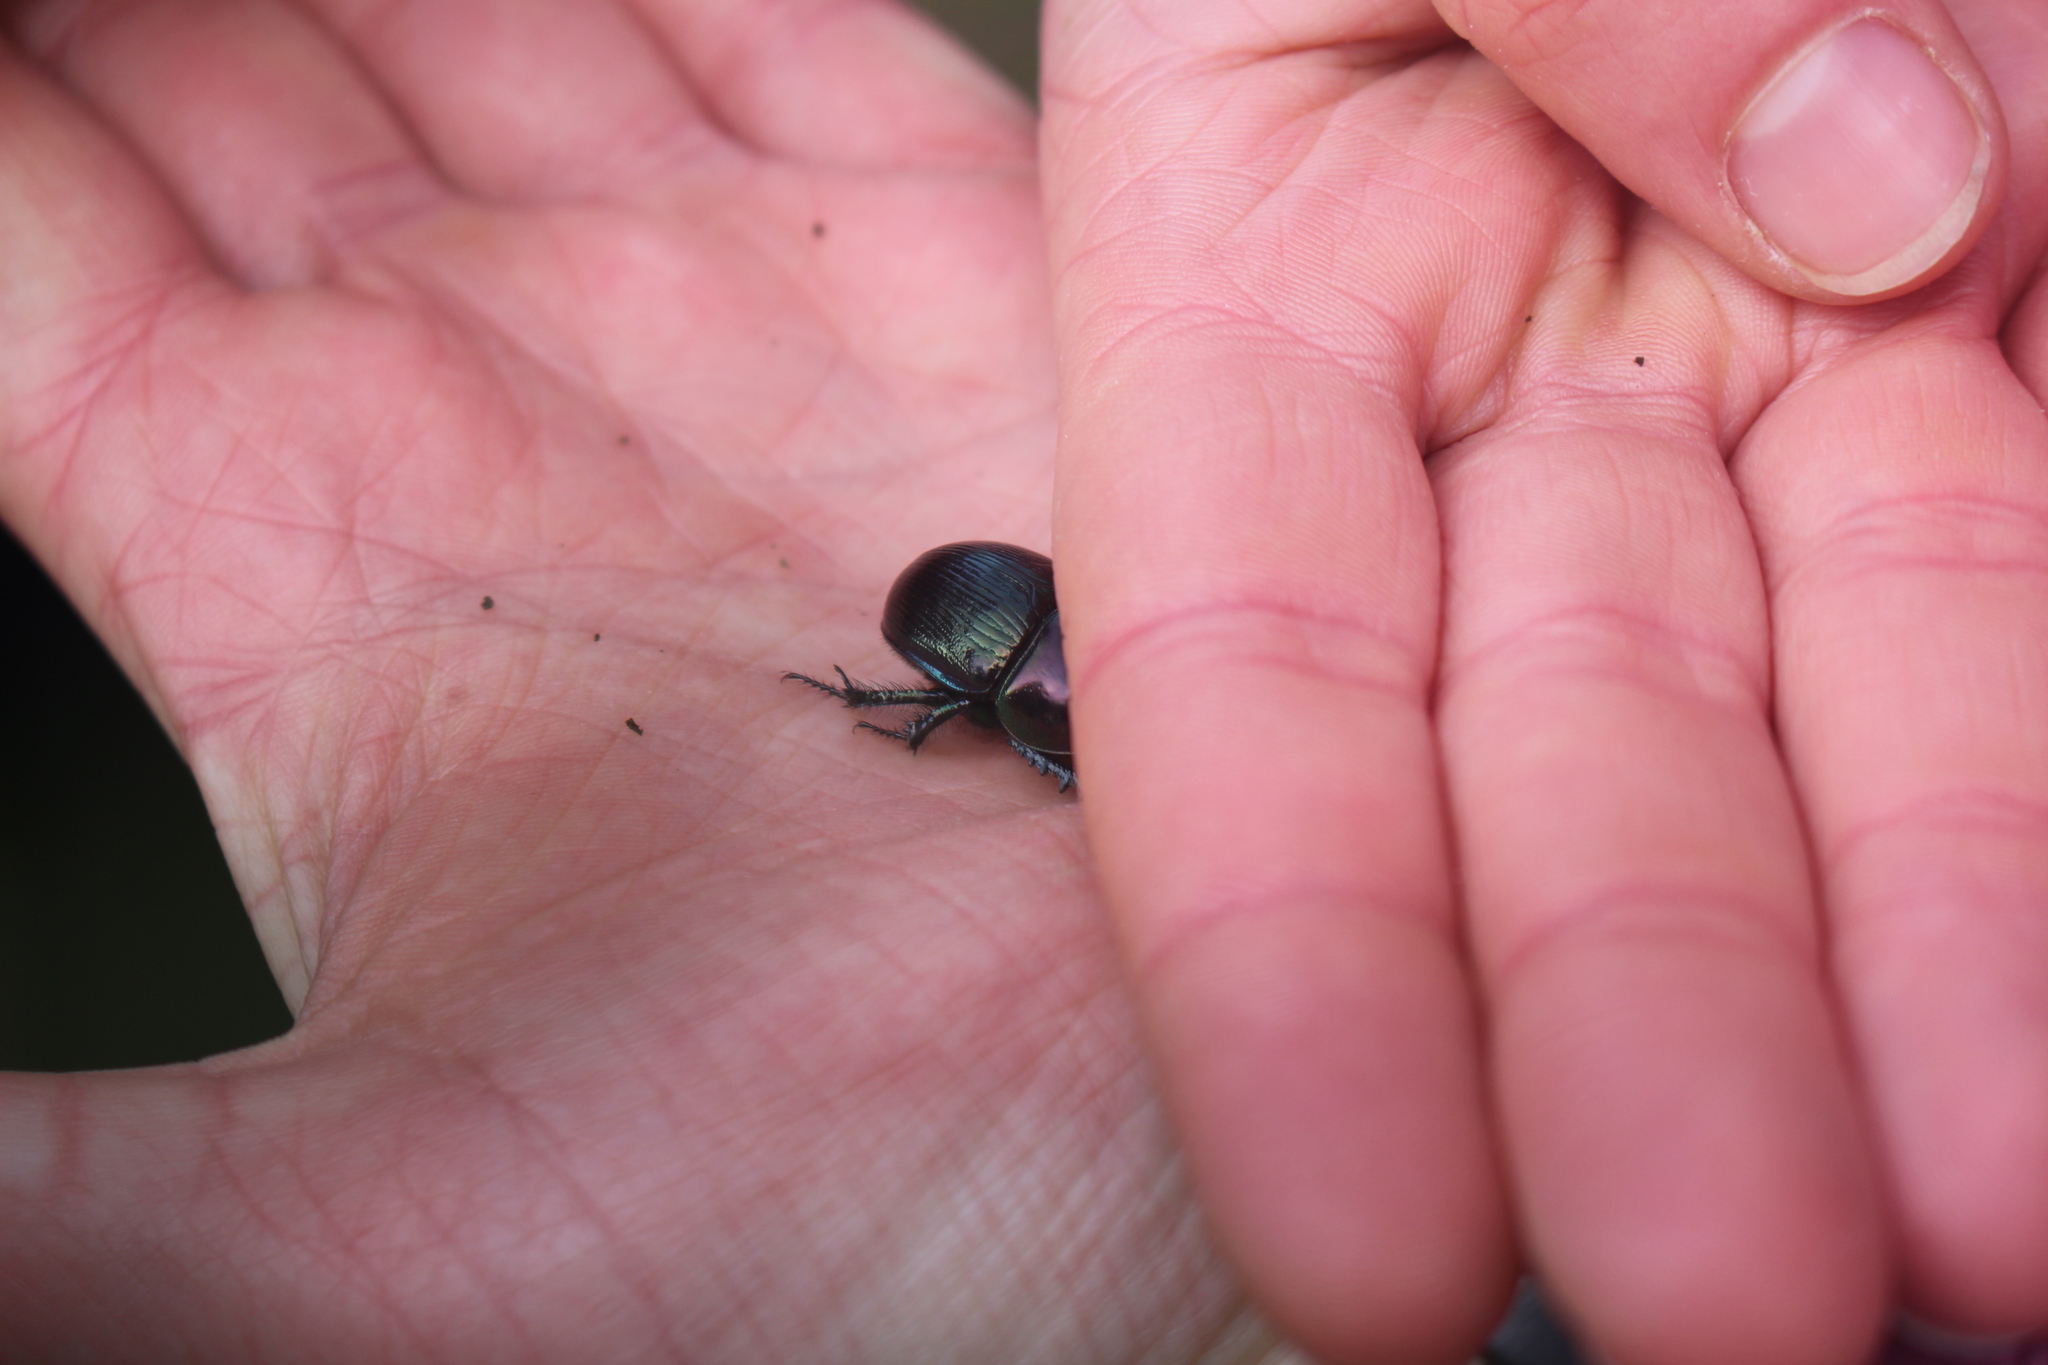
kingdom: Animalia
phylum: Arthropoda
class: Insecta
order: Coleoptera
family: Geotrupidae
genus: Geotrupes
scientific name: Geotrupes mutator
